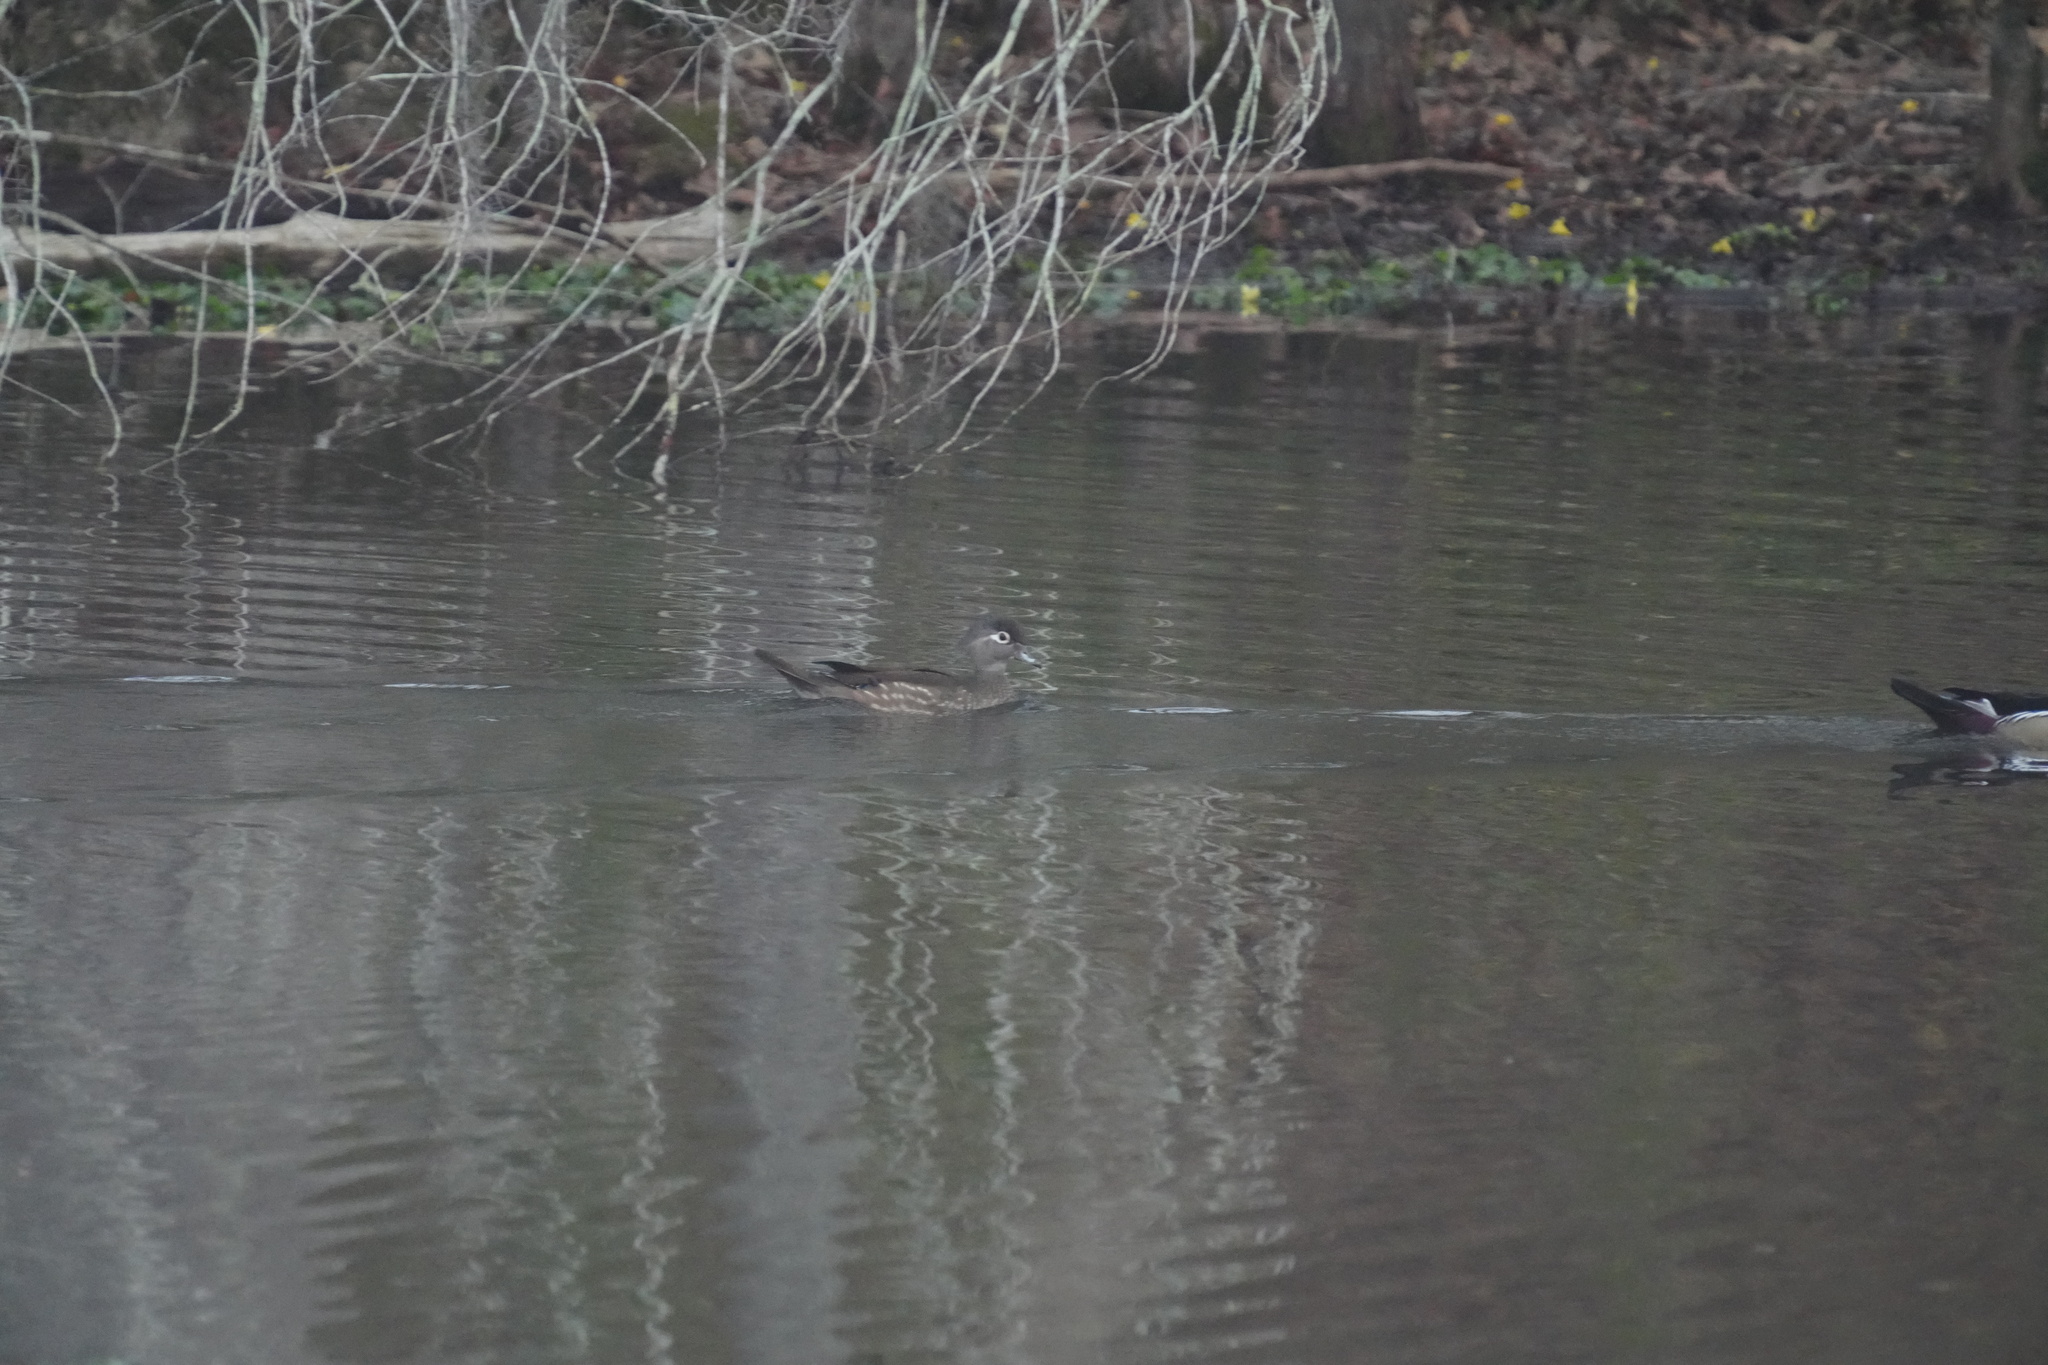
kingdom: Animalia
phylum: Chordata
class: Aves
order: Anseriformes
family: Anatidae
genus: Aix
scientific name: Aix sponsa
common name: Wood duck
